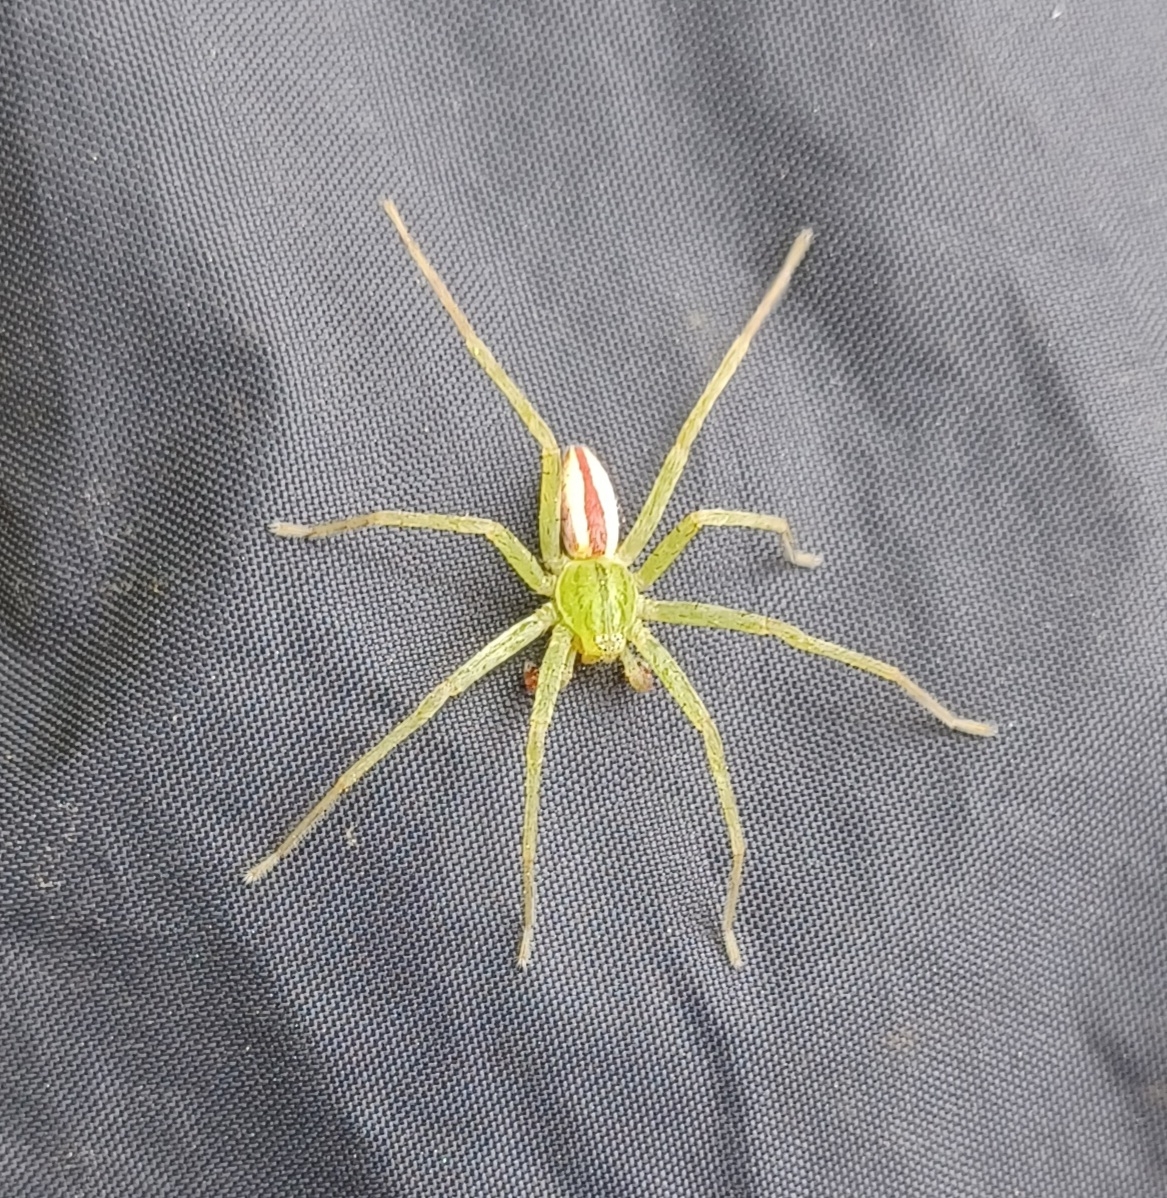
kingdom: Animalia
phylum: Arthropoda
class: Arachnida
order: Araneae
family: Sparassidae
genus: Micrommata
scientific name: Micrommata virescens
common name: Green spider
